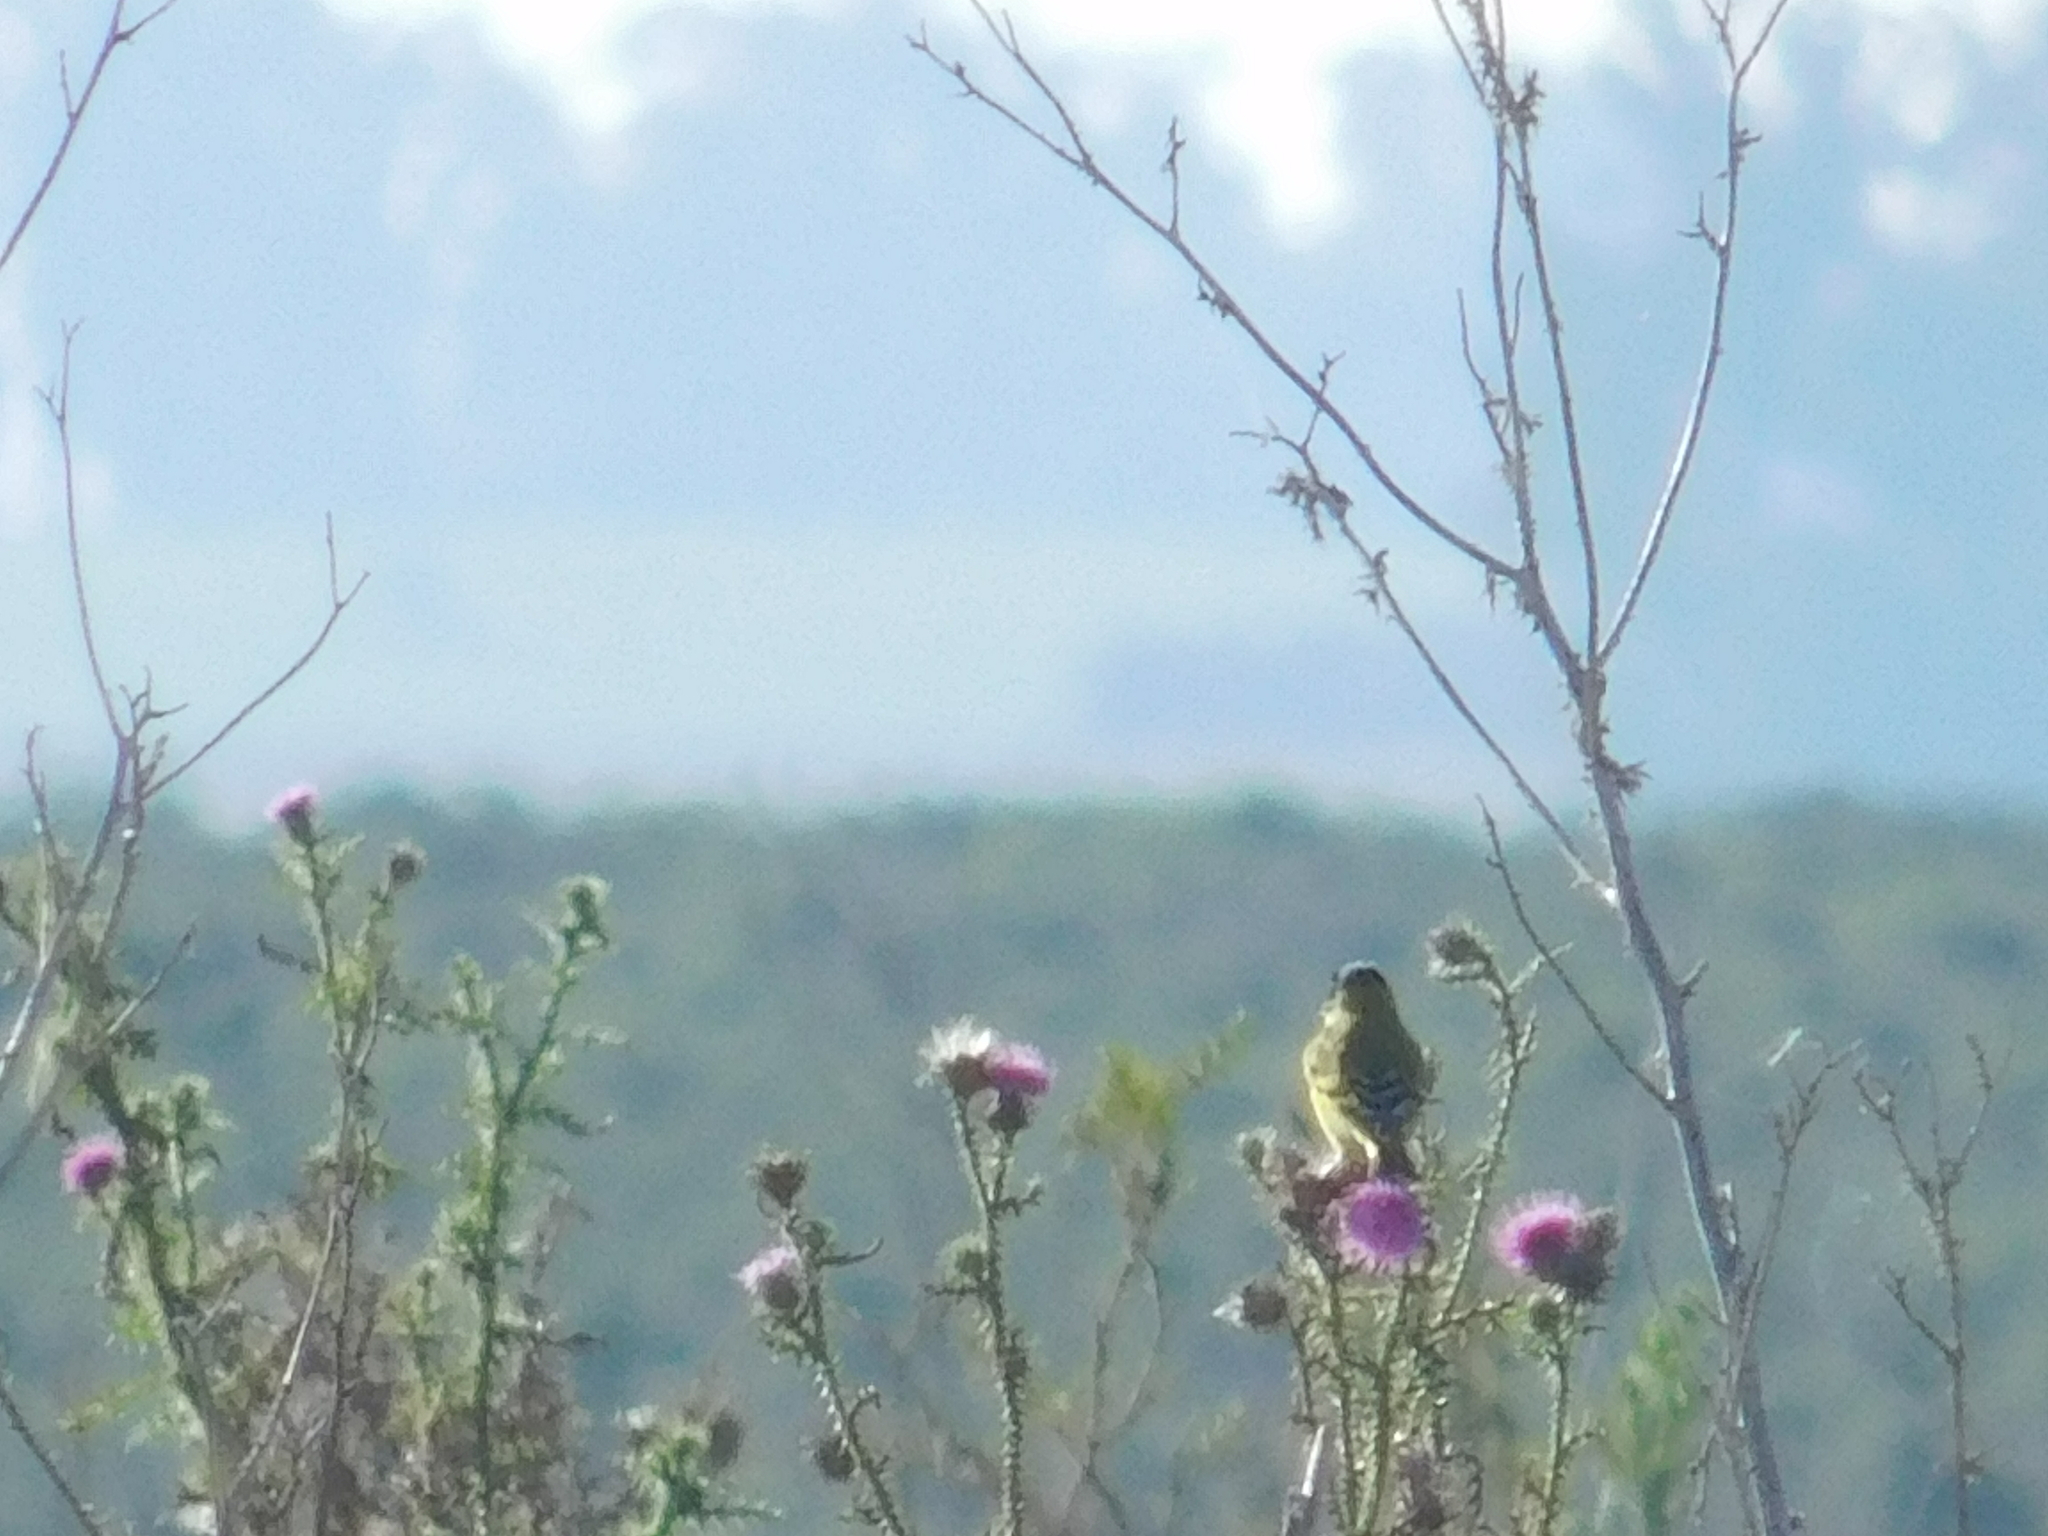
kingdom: Animalia
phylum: Chordata
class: Aves
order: Passeriformes
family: Fringillidae
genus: Spinus
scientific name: Spinus magellanicus
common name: Hooded siskin
